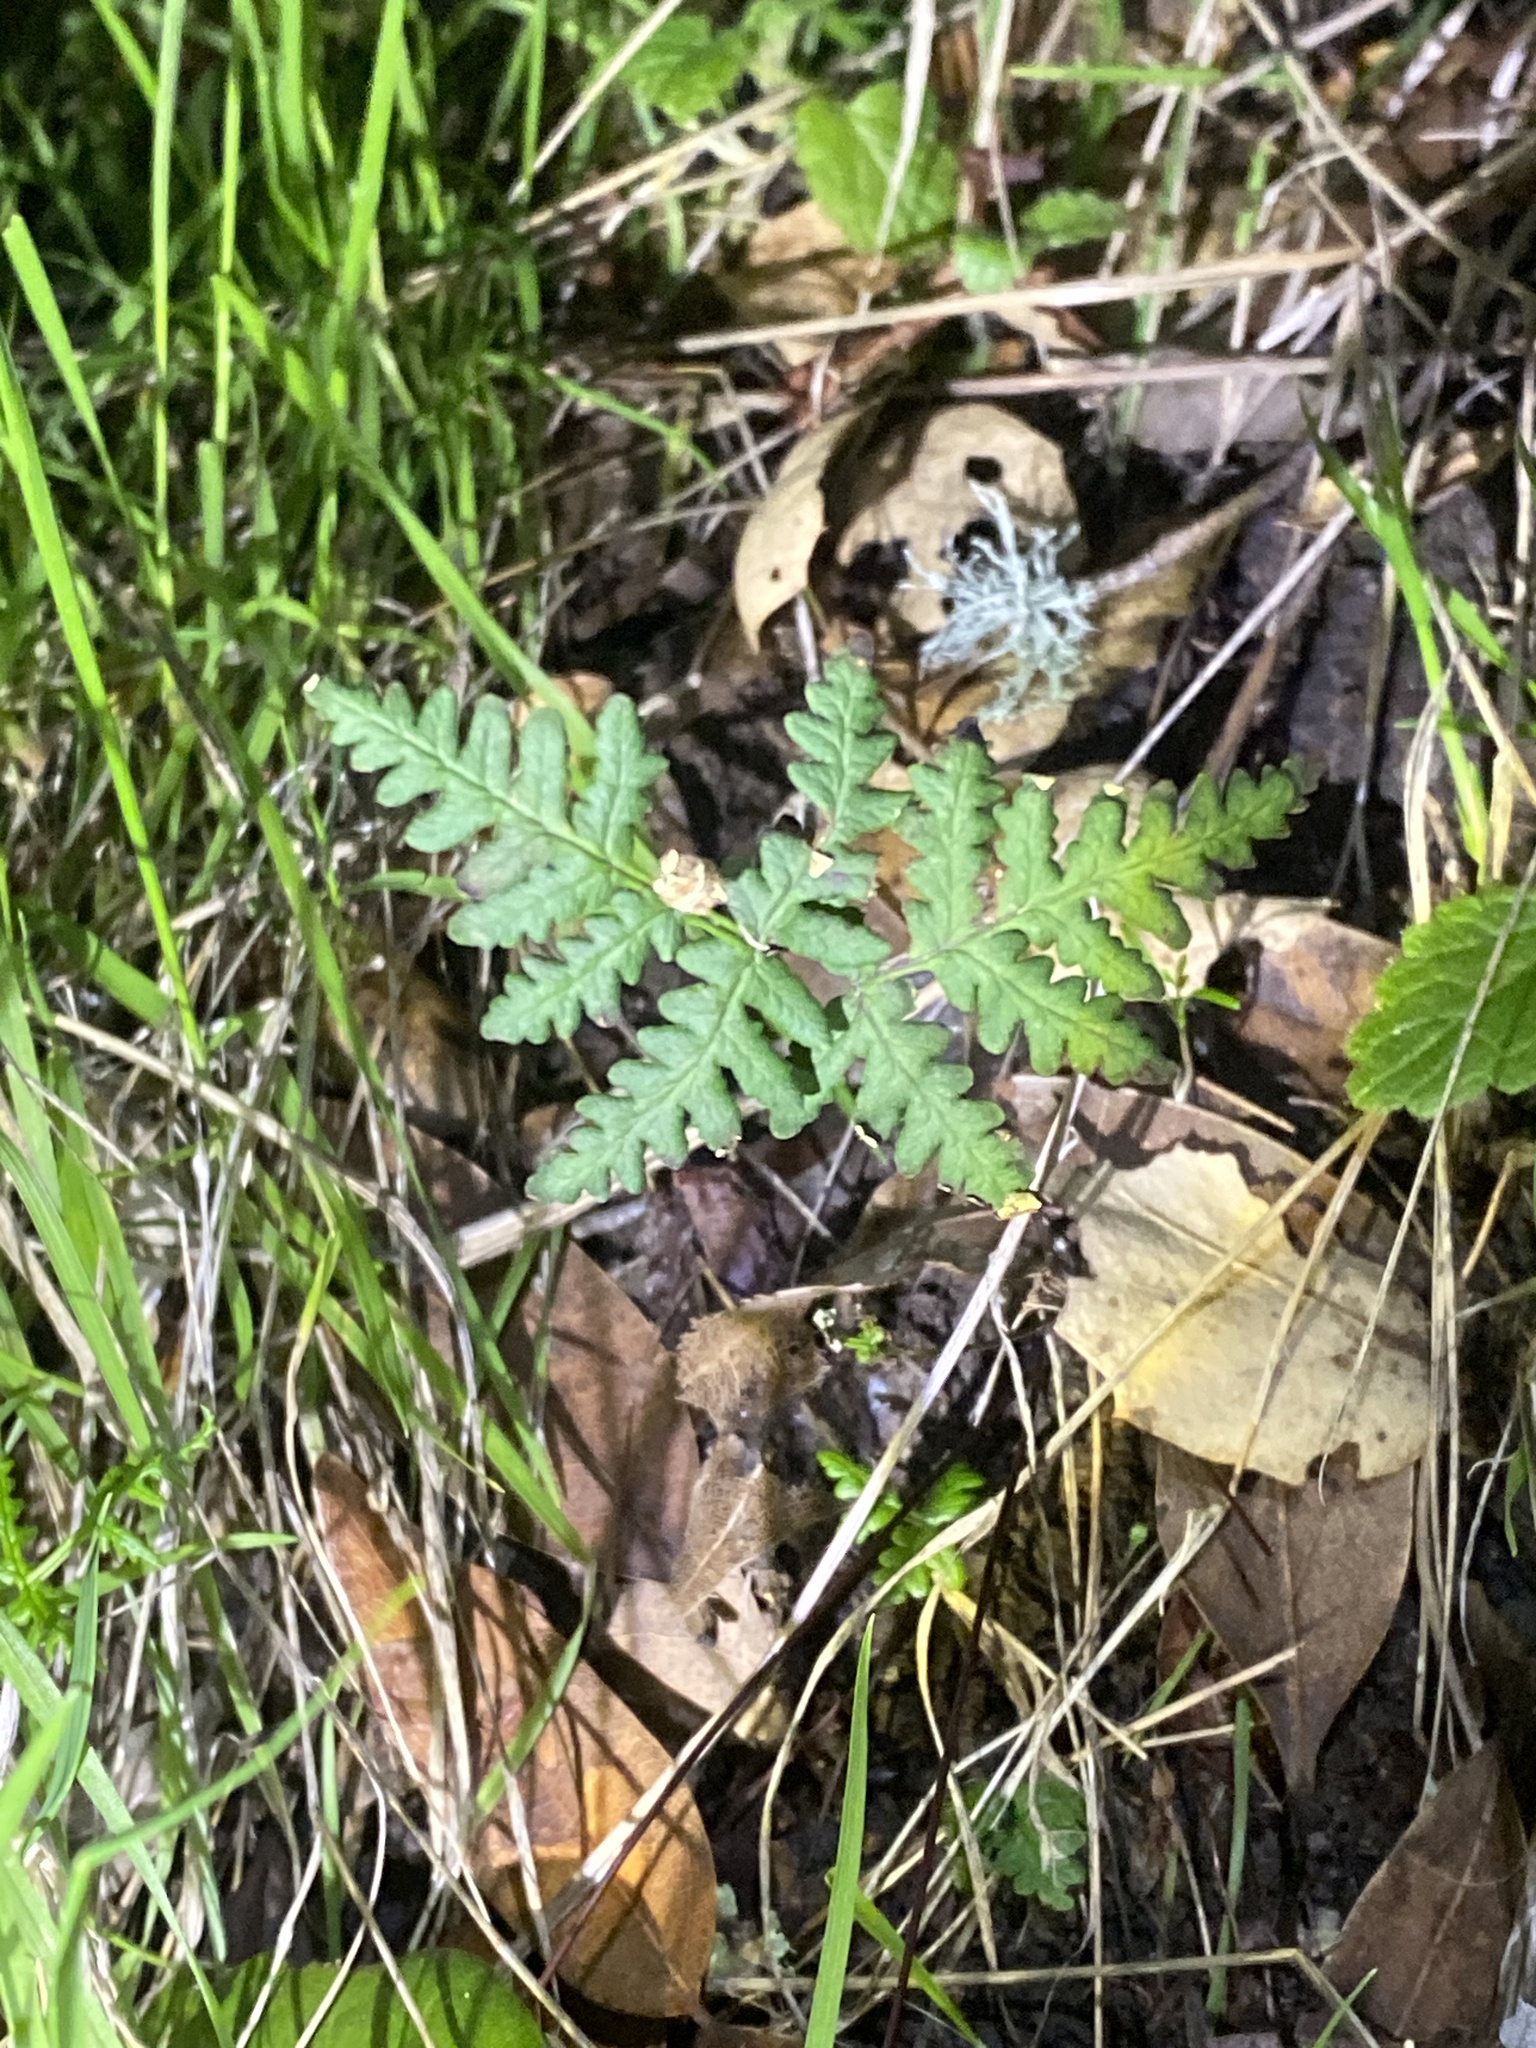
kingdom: Plantae
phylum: Tracheophyta
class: Polypodiopsida
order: Polypodiales
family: Pteridaceae
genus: Pentagramma
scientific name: Pentagramma triangularis
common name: Gold fern
